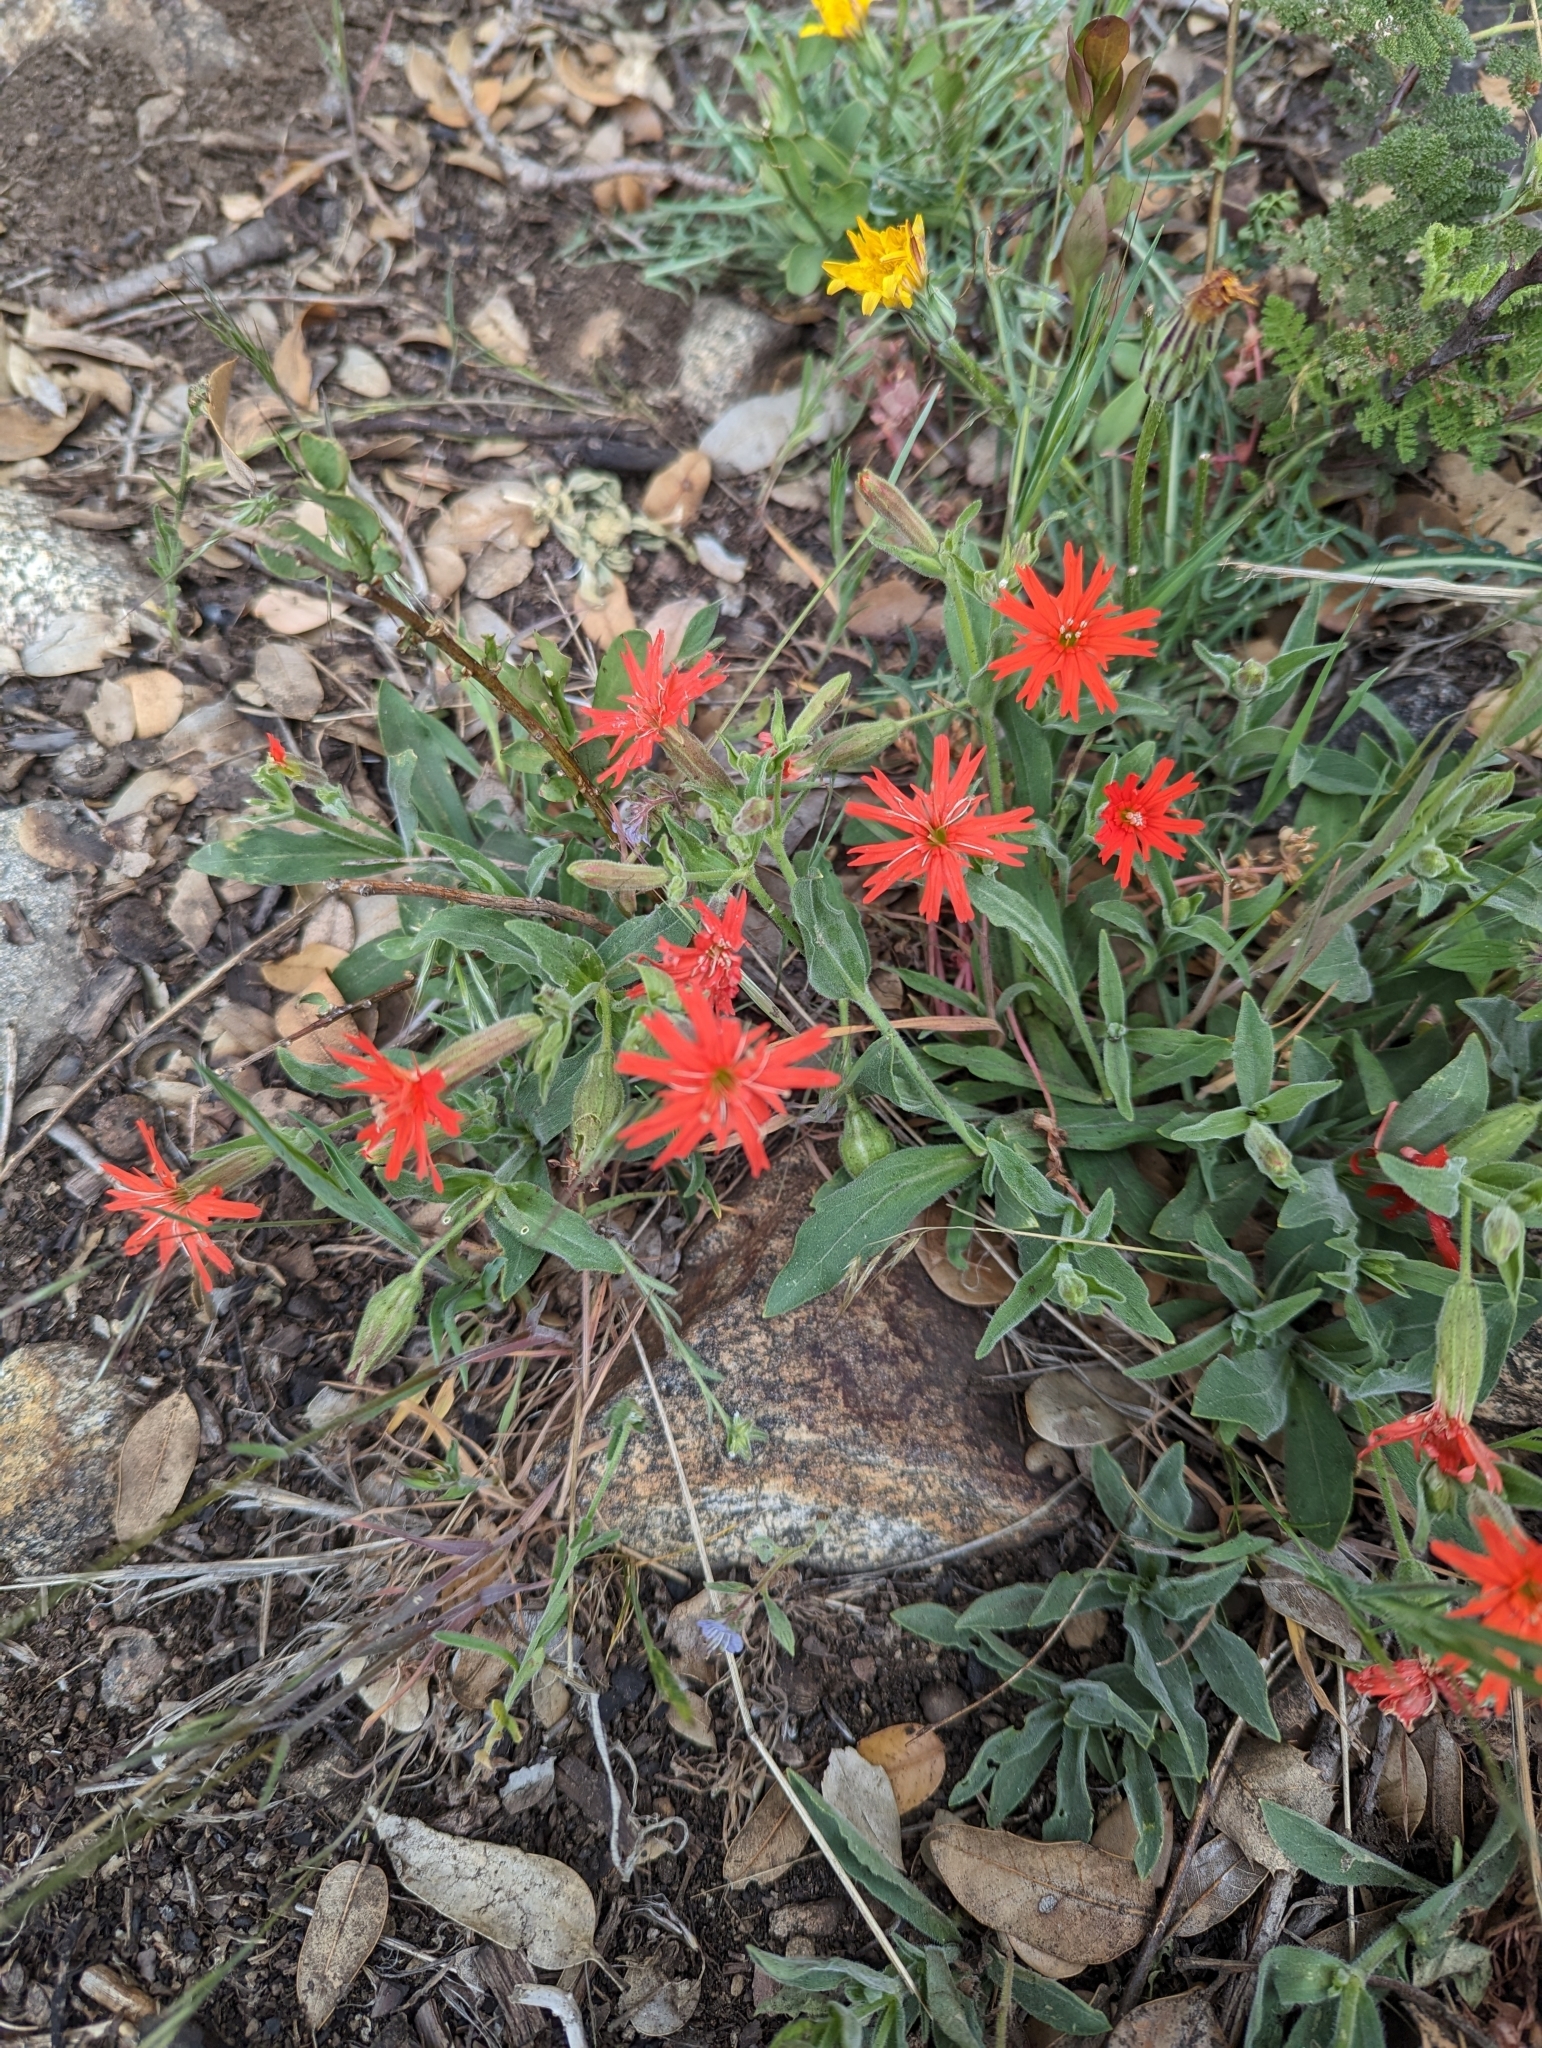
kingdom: Plantae
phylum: Tracheophyta
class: Magnoliopsida
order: Caryophyllales
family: Caryophyllaceae
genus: Silene
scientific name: Silene laciniata
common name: Indian-pink
